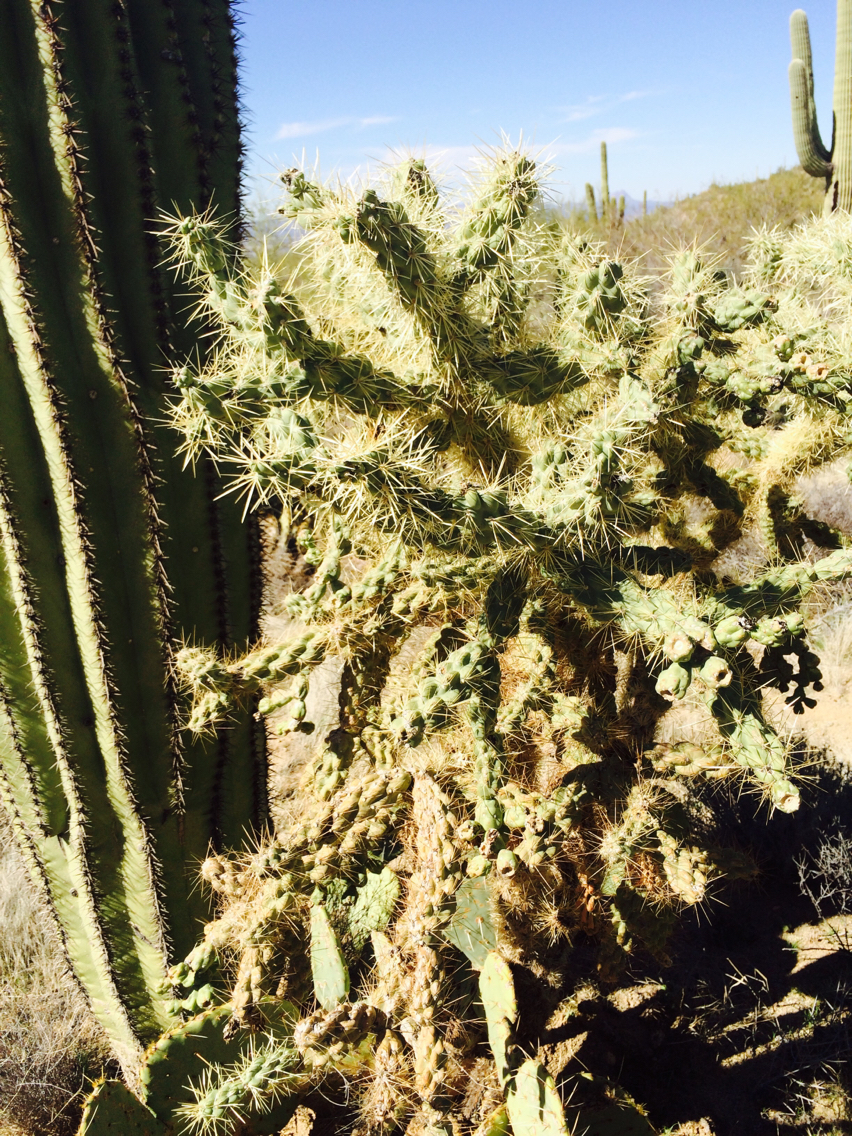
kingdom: Plantae
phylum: Tracheophyta
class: Magnoliopsida
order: Caryophyllales
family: Cactaceae
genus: Cylindropuntia
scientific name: Cylindropuntia fulgida
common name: Jumping cholla
